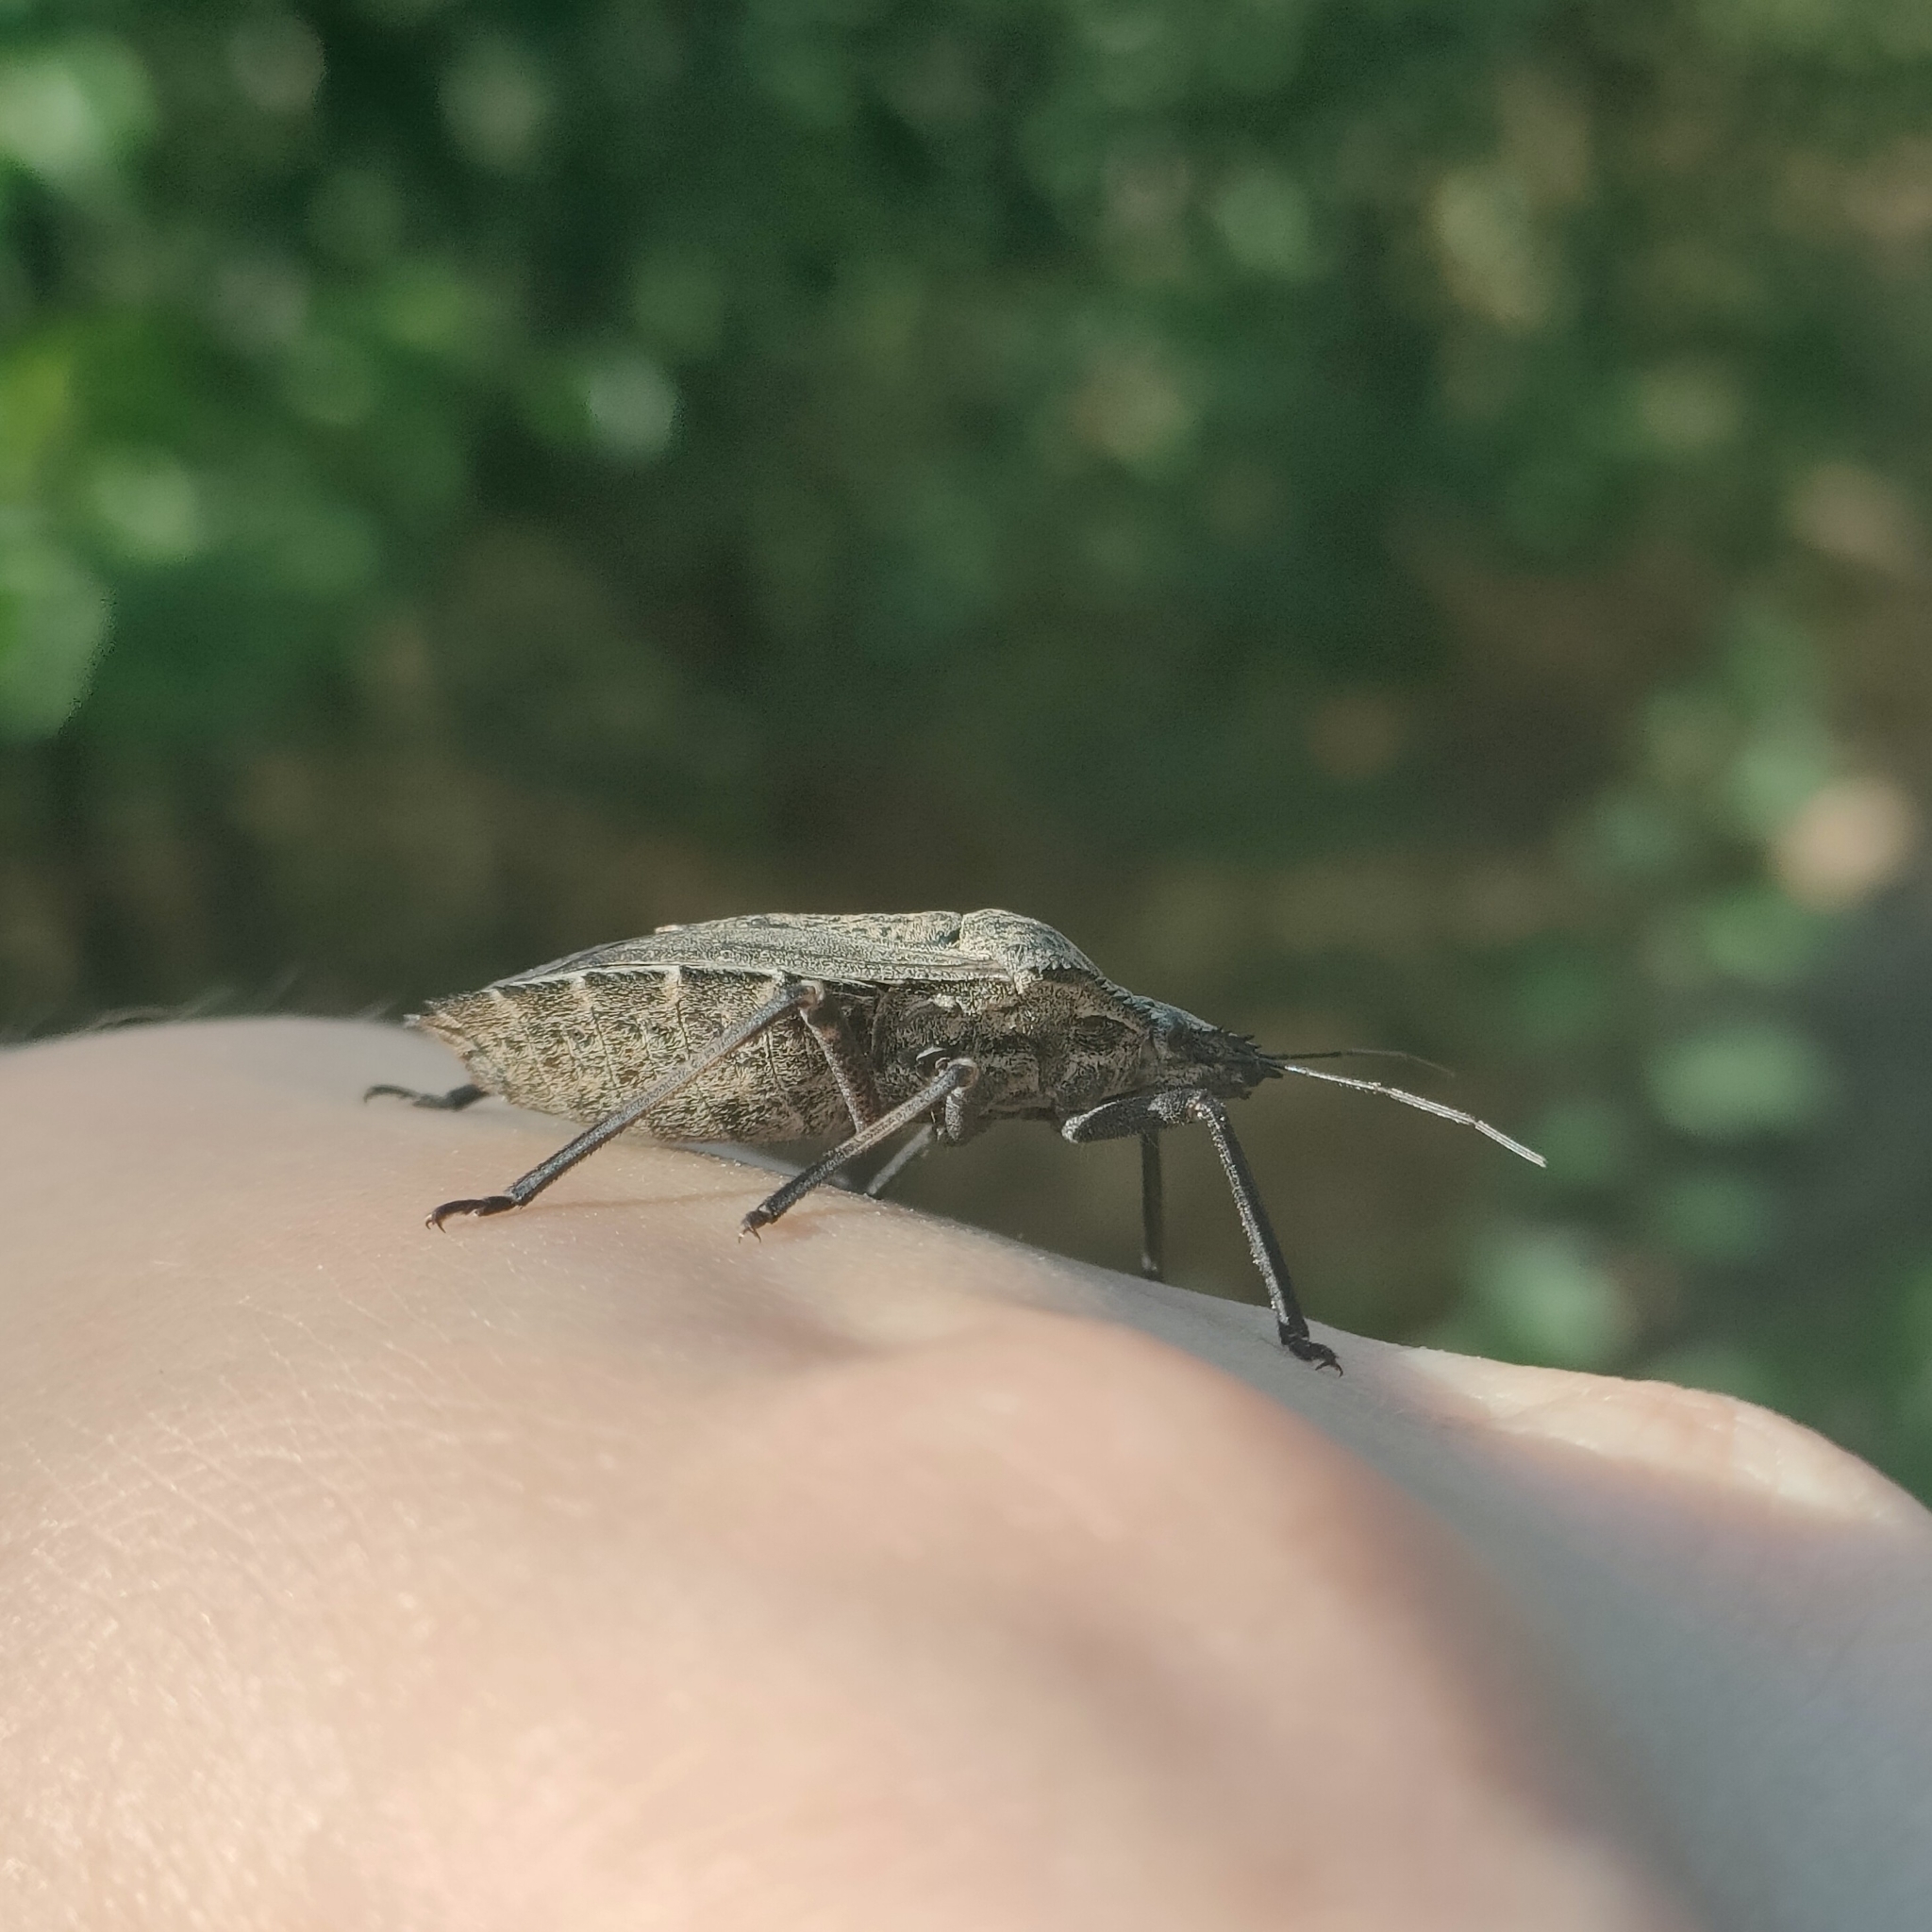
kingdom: Animalia
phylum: Arthropoda
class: Insecta
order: Hemiptera
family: Pentatomidae
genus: Mustha
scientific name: Mustha spinosula
